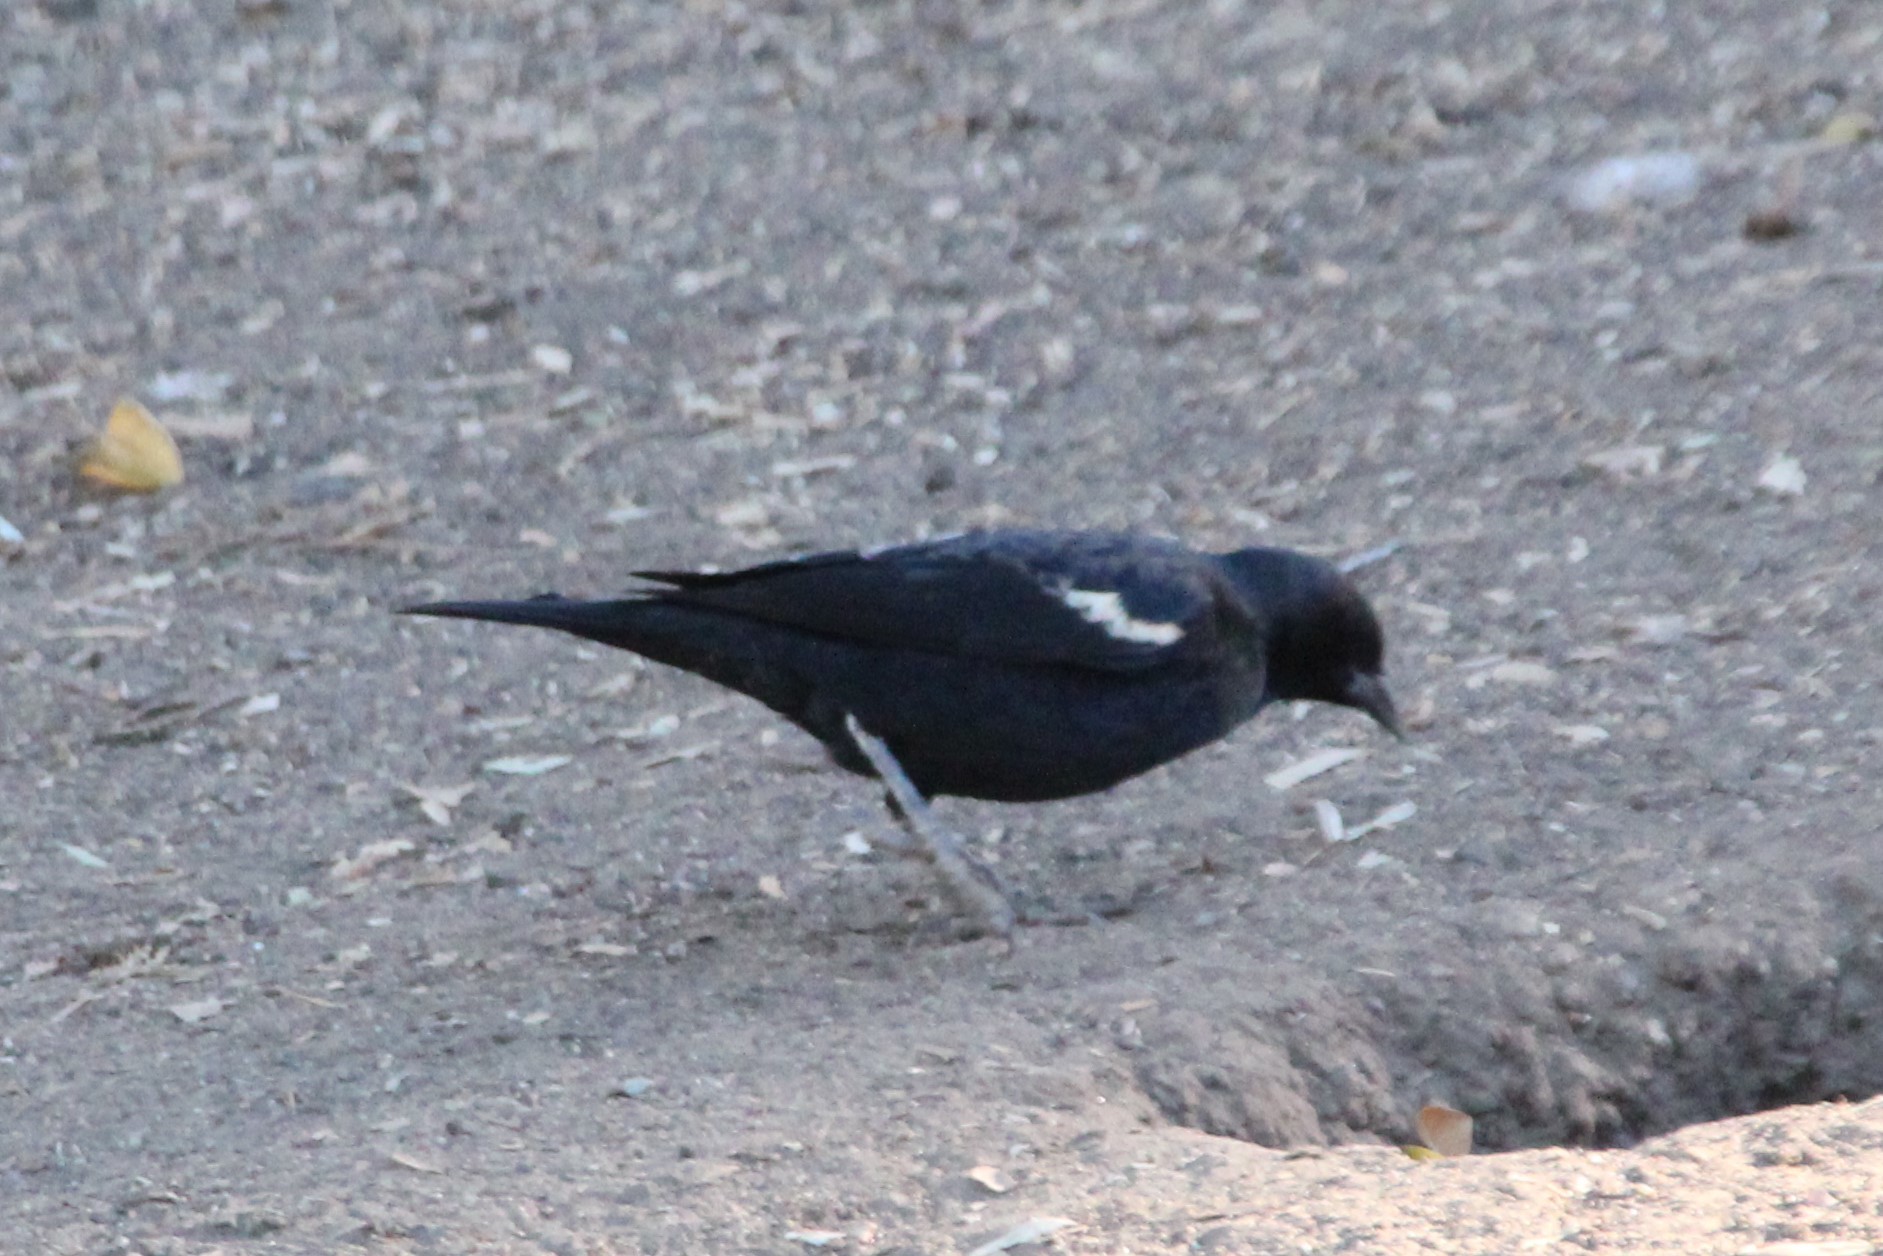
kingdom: Animalia
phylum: Chordata
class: Aves
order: Passeriformes
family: Icteridae
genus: Agelaius
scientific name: Agelaius tricolor
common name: Tricolored blackbird
